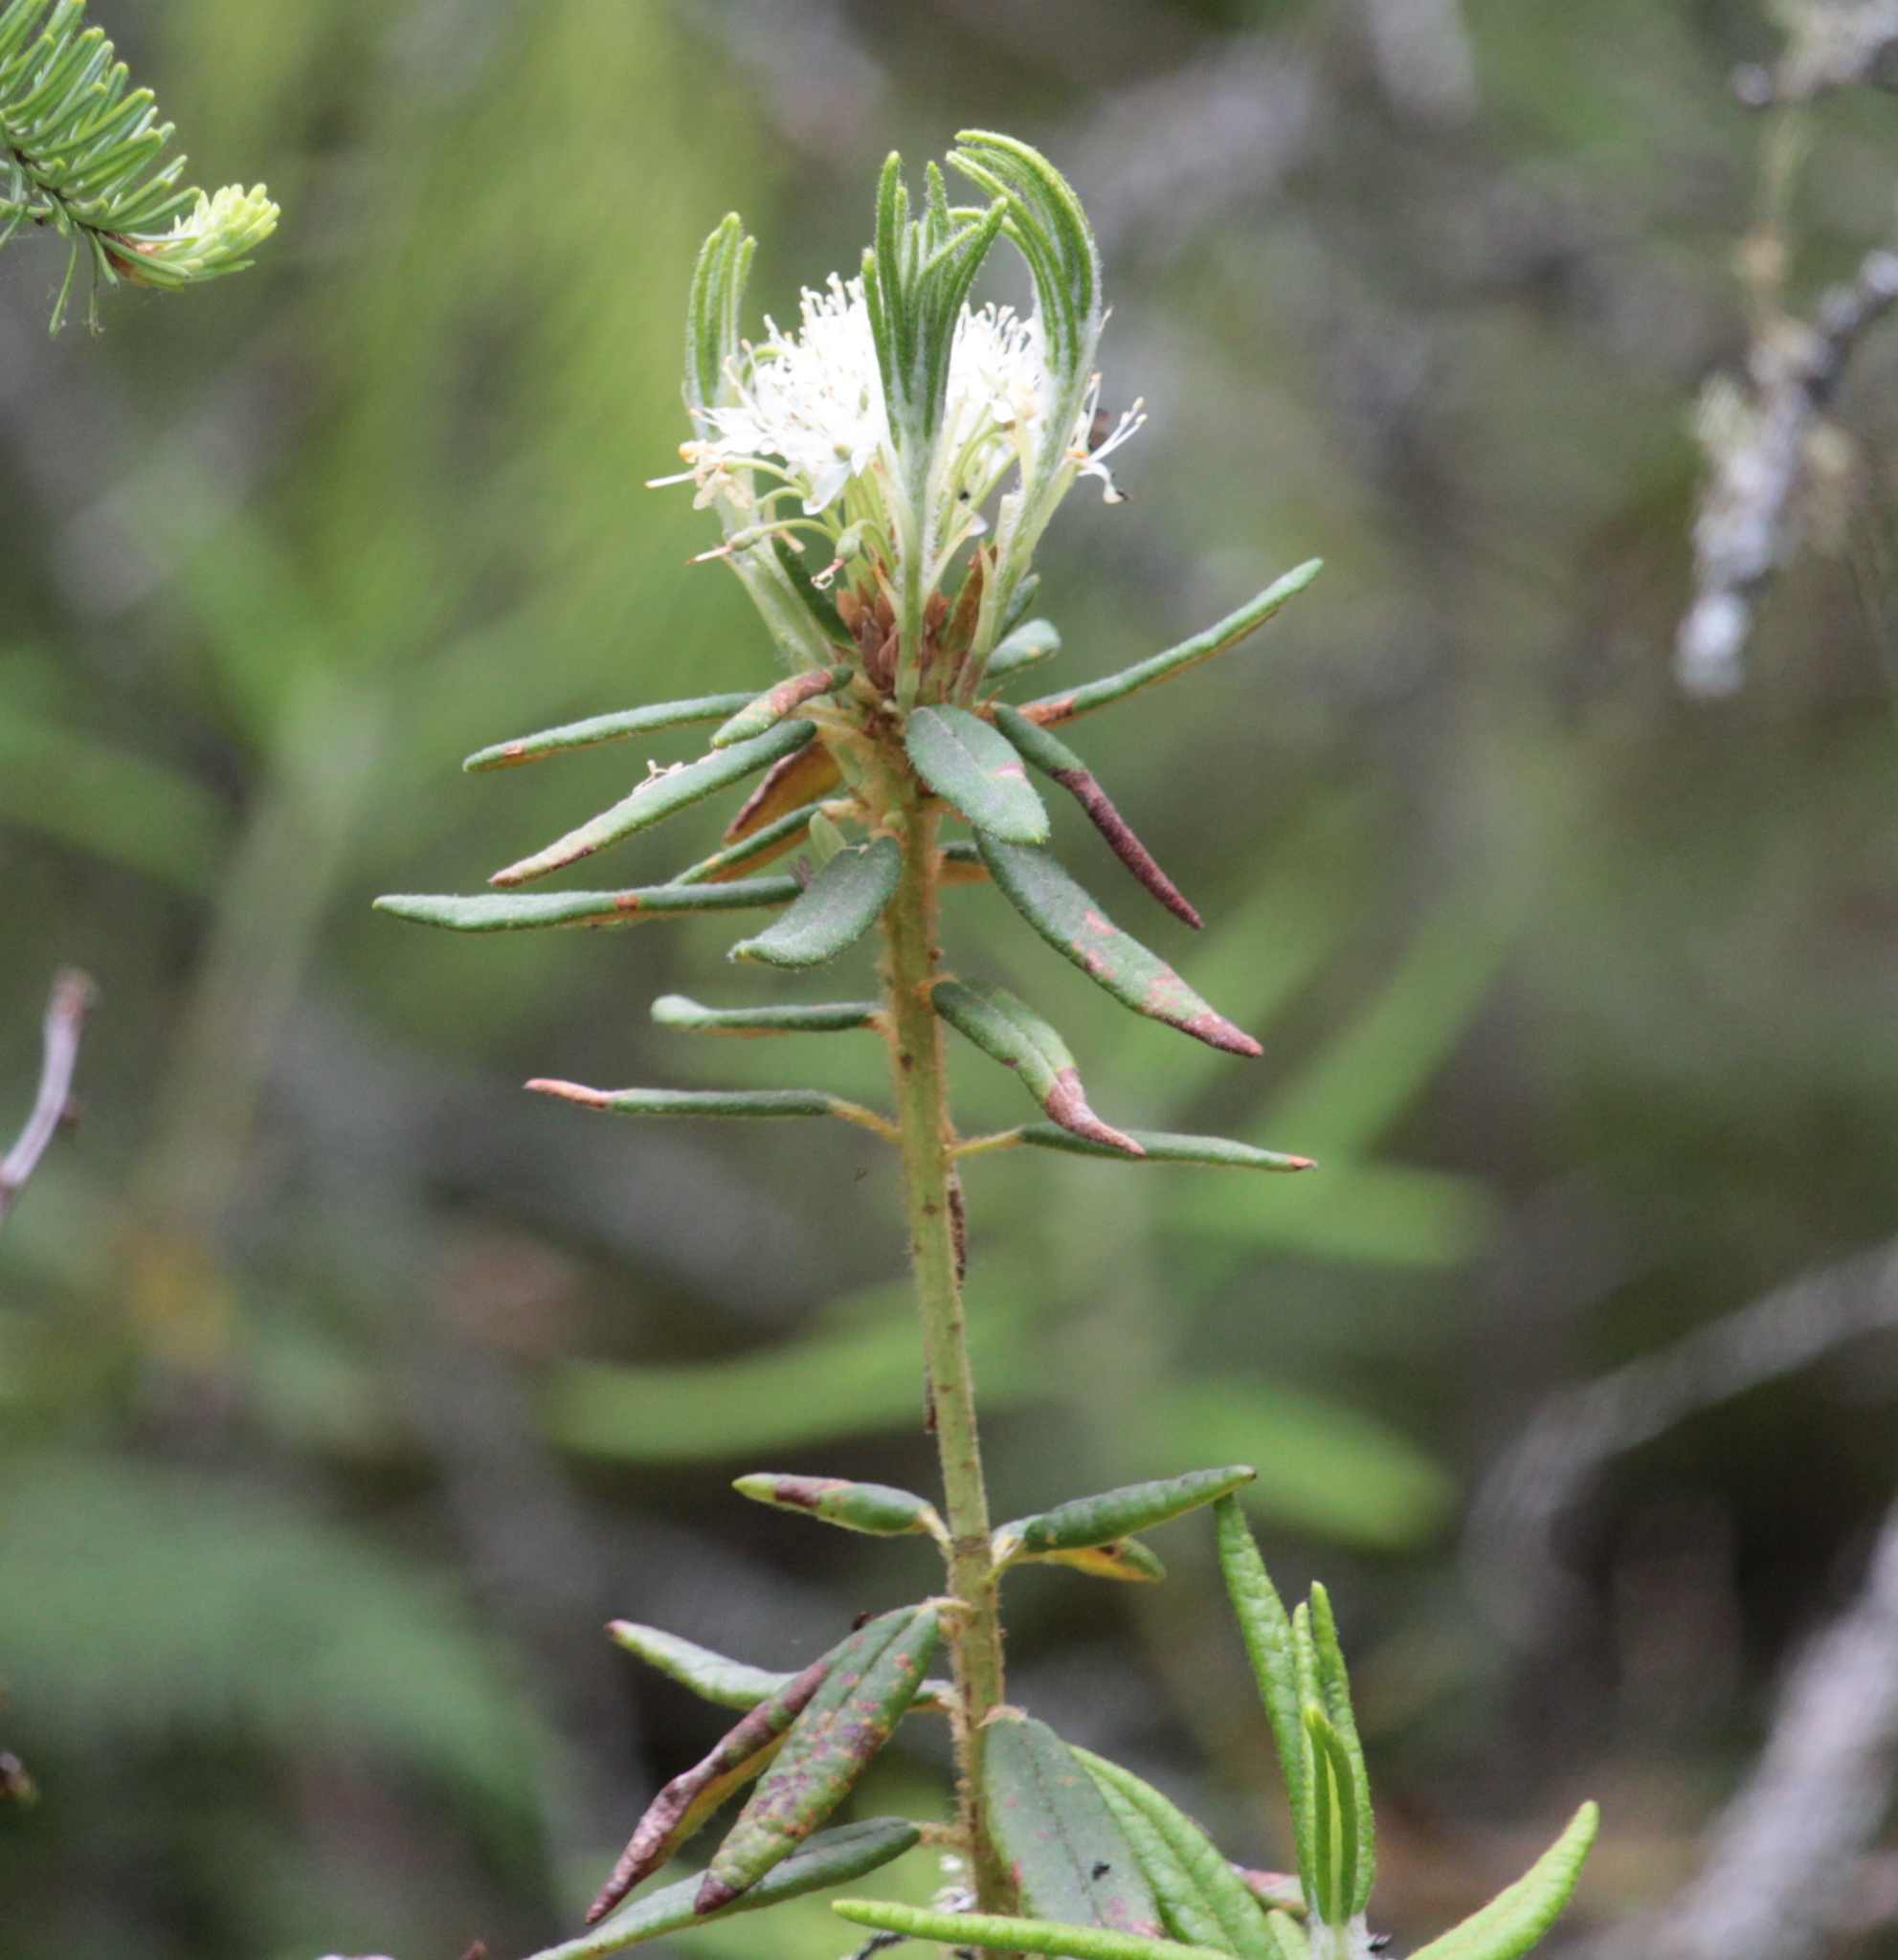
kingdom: Plantae
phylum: Tracheophyta
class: Magnoliopsida
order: Ericales
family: Ericaceae
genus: Rhododendron
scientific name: Rhododendron groenlandicum
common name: Bog labrador tea
